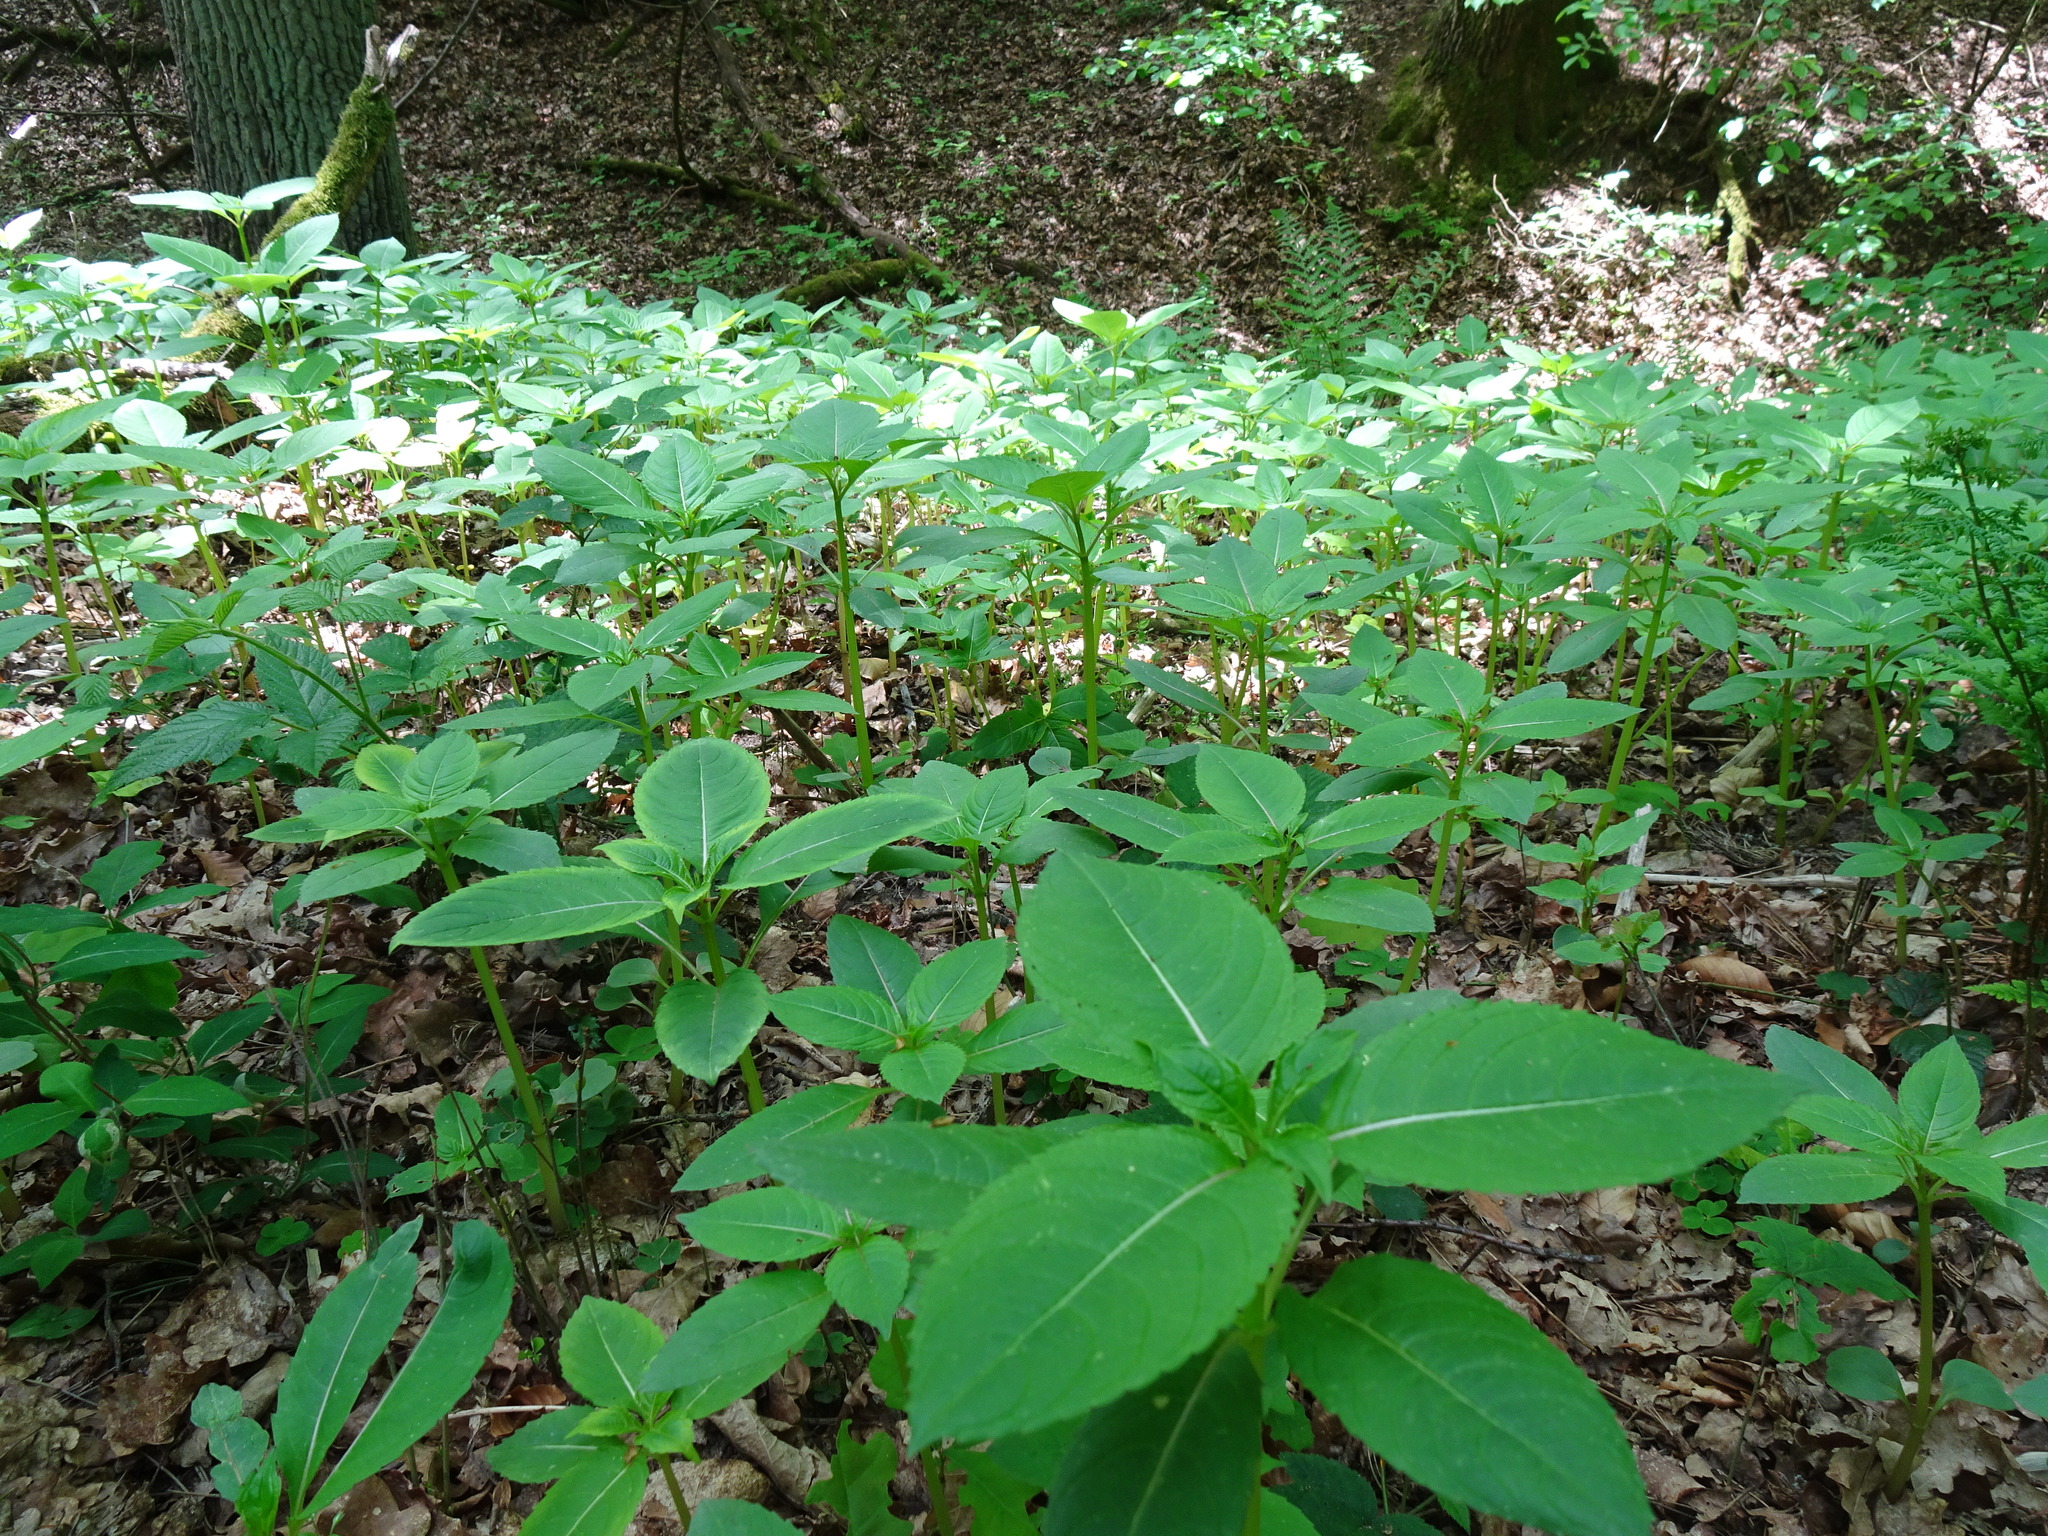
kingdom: Plantae
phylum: Tracheophyta
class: Magnoliopsida
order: Ericales
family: Balsaminaceae
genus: Impatiens
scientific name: Impatiens parviflora
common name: Small balsam
